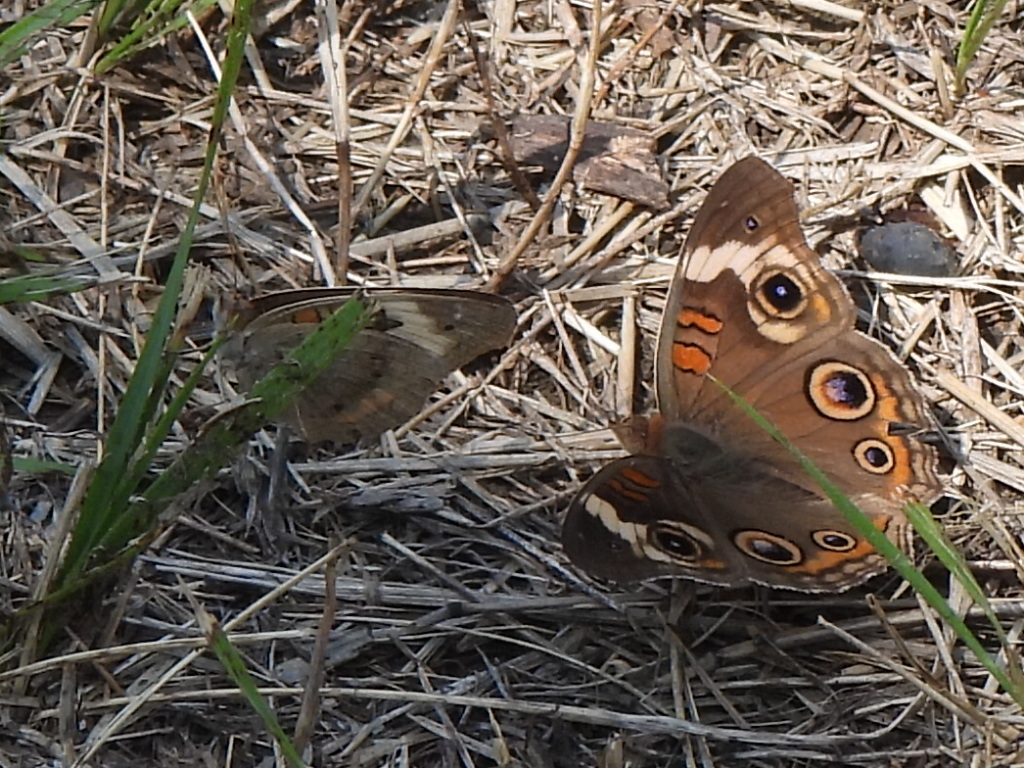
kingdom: Animalia
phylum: Arthropoda
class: Insecta
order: Lepidoptera
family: Nymphalidae
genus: Junonia
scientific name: Junonia coenia
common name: Common buckeye
